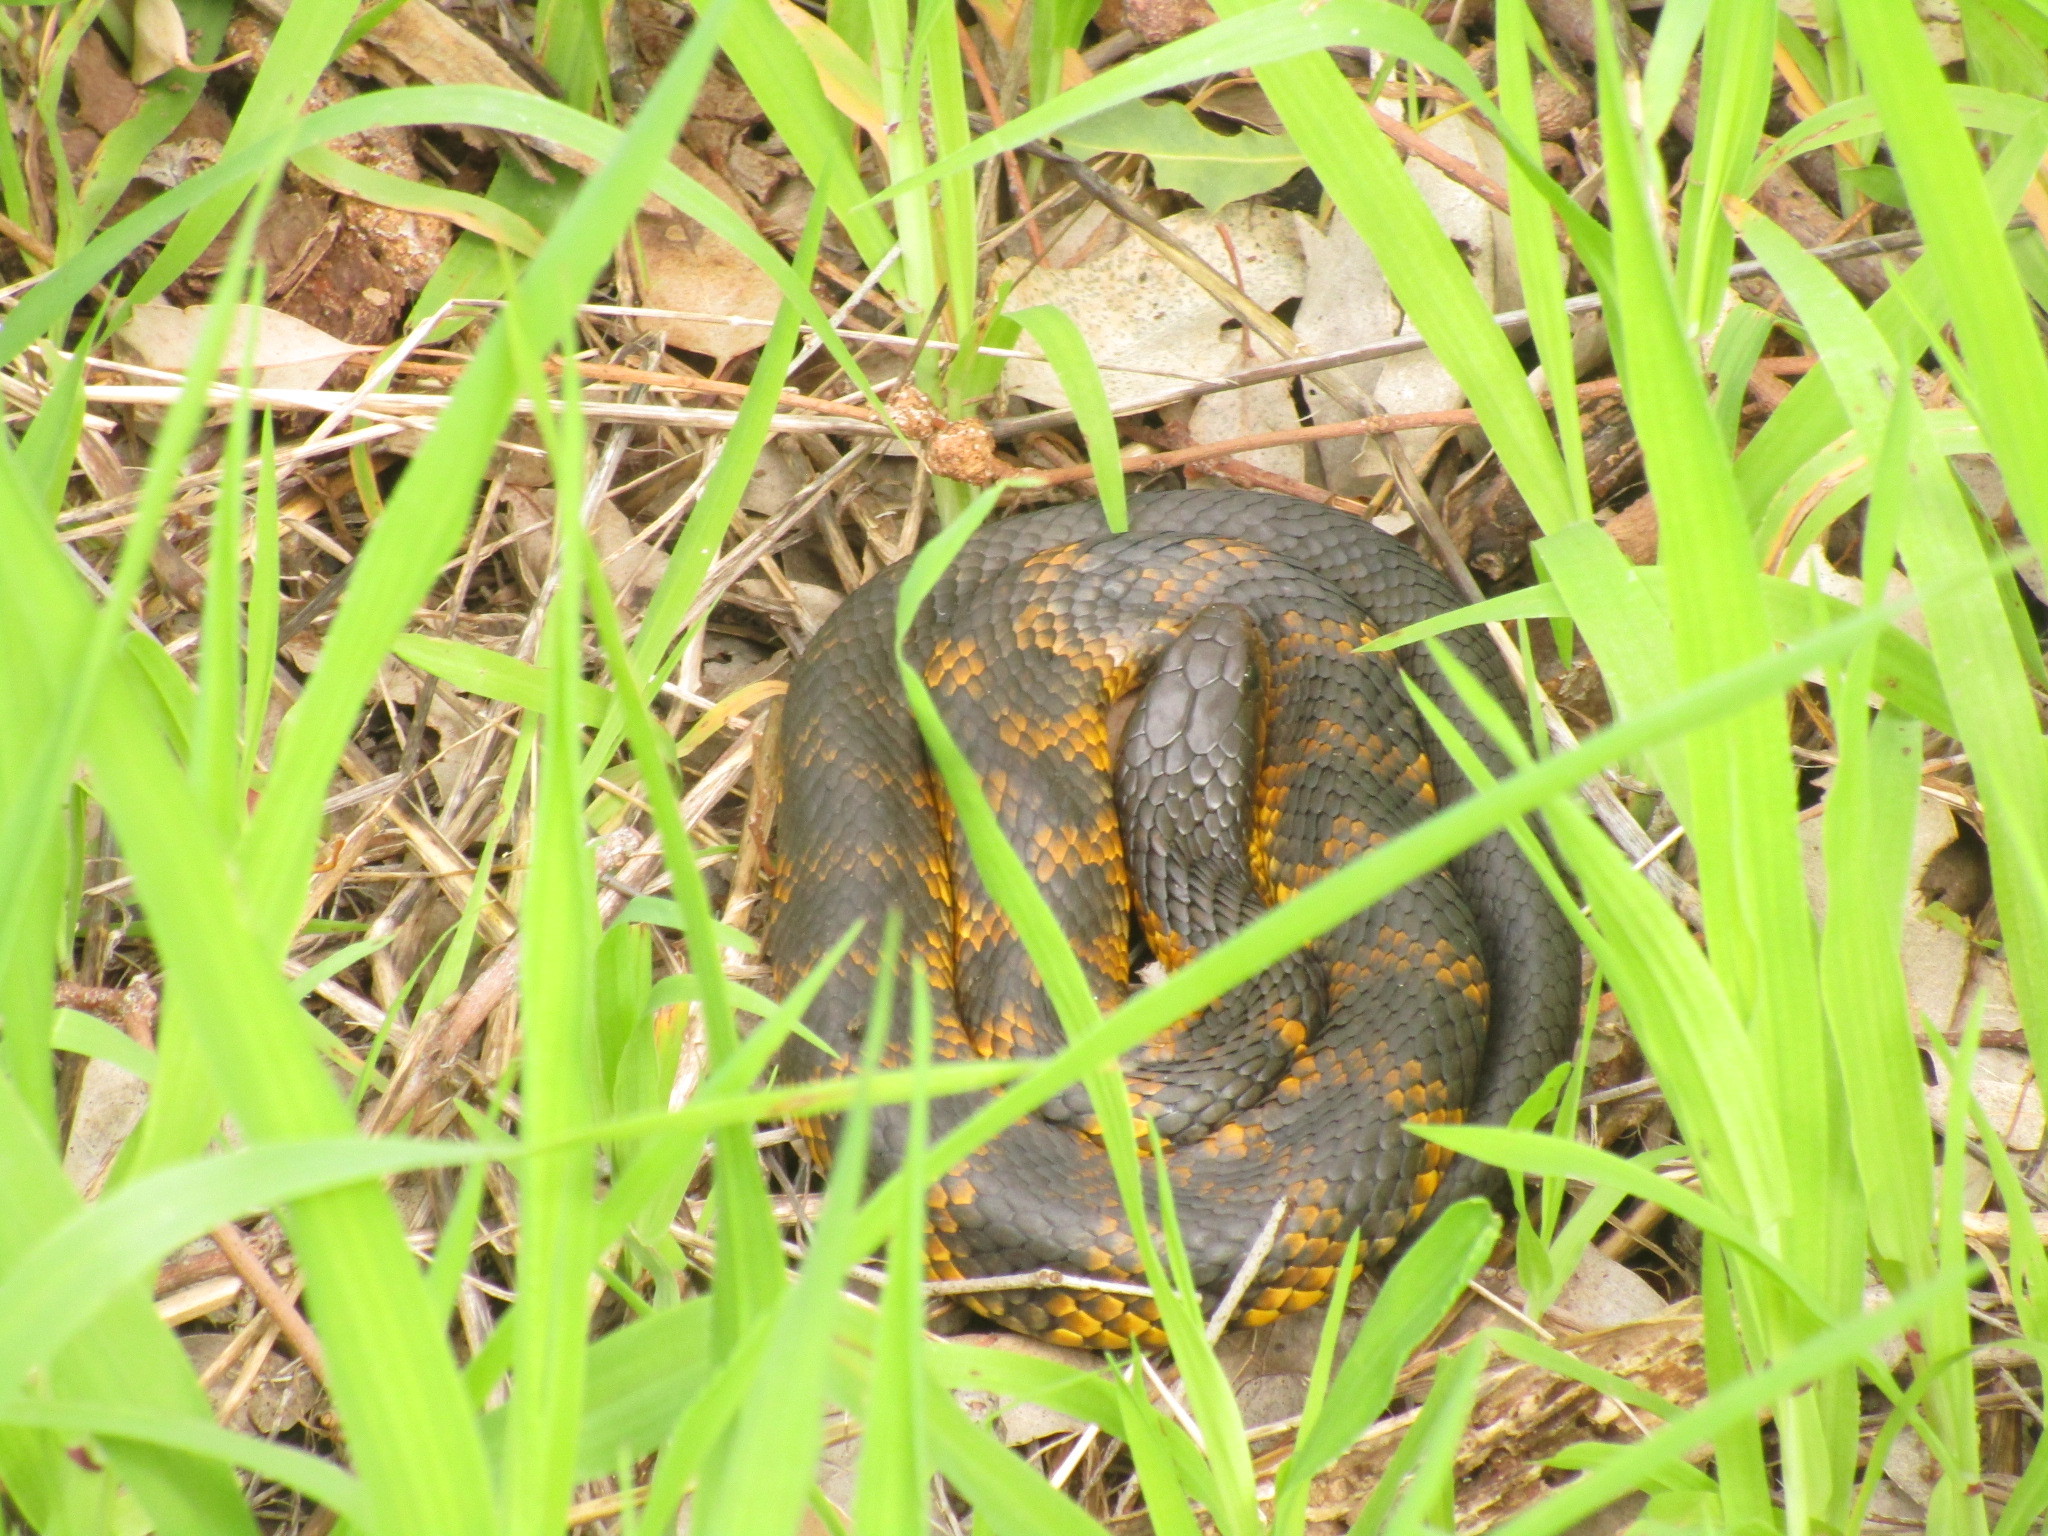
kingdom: Animalia
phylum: Chordata
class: Squamata
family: Elapidae
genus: Notechis
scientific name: Notechis scutatus
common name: Mainland tiger snake
